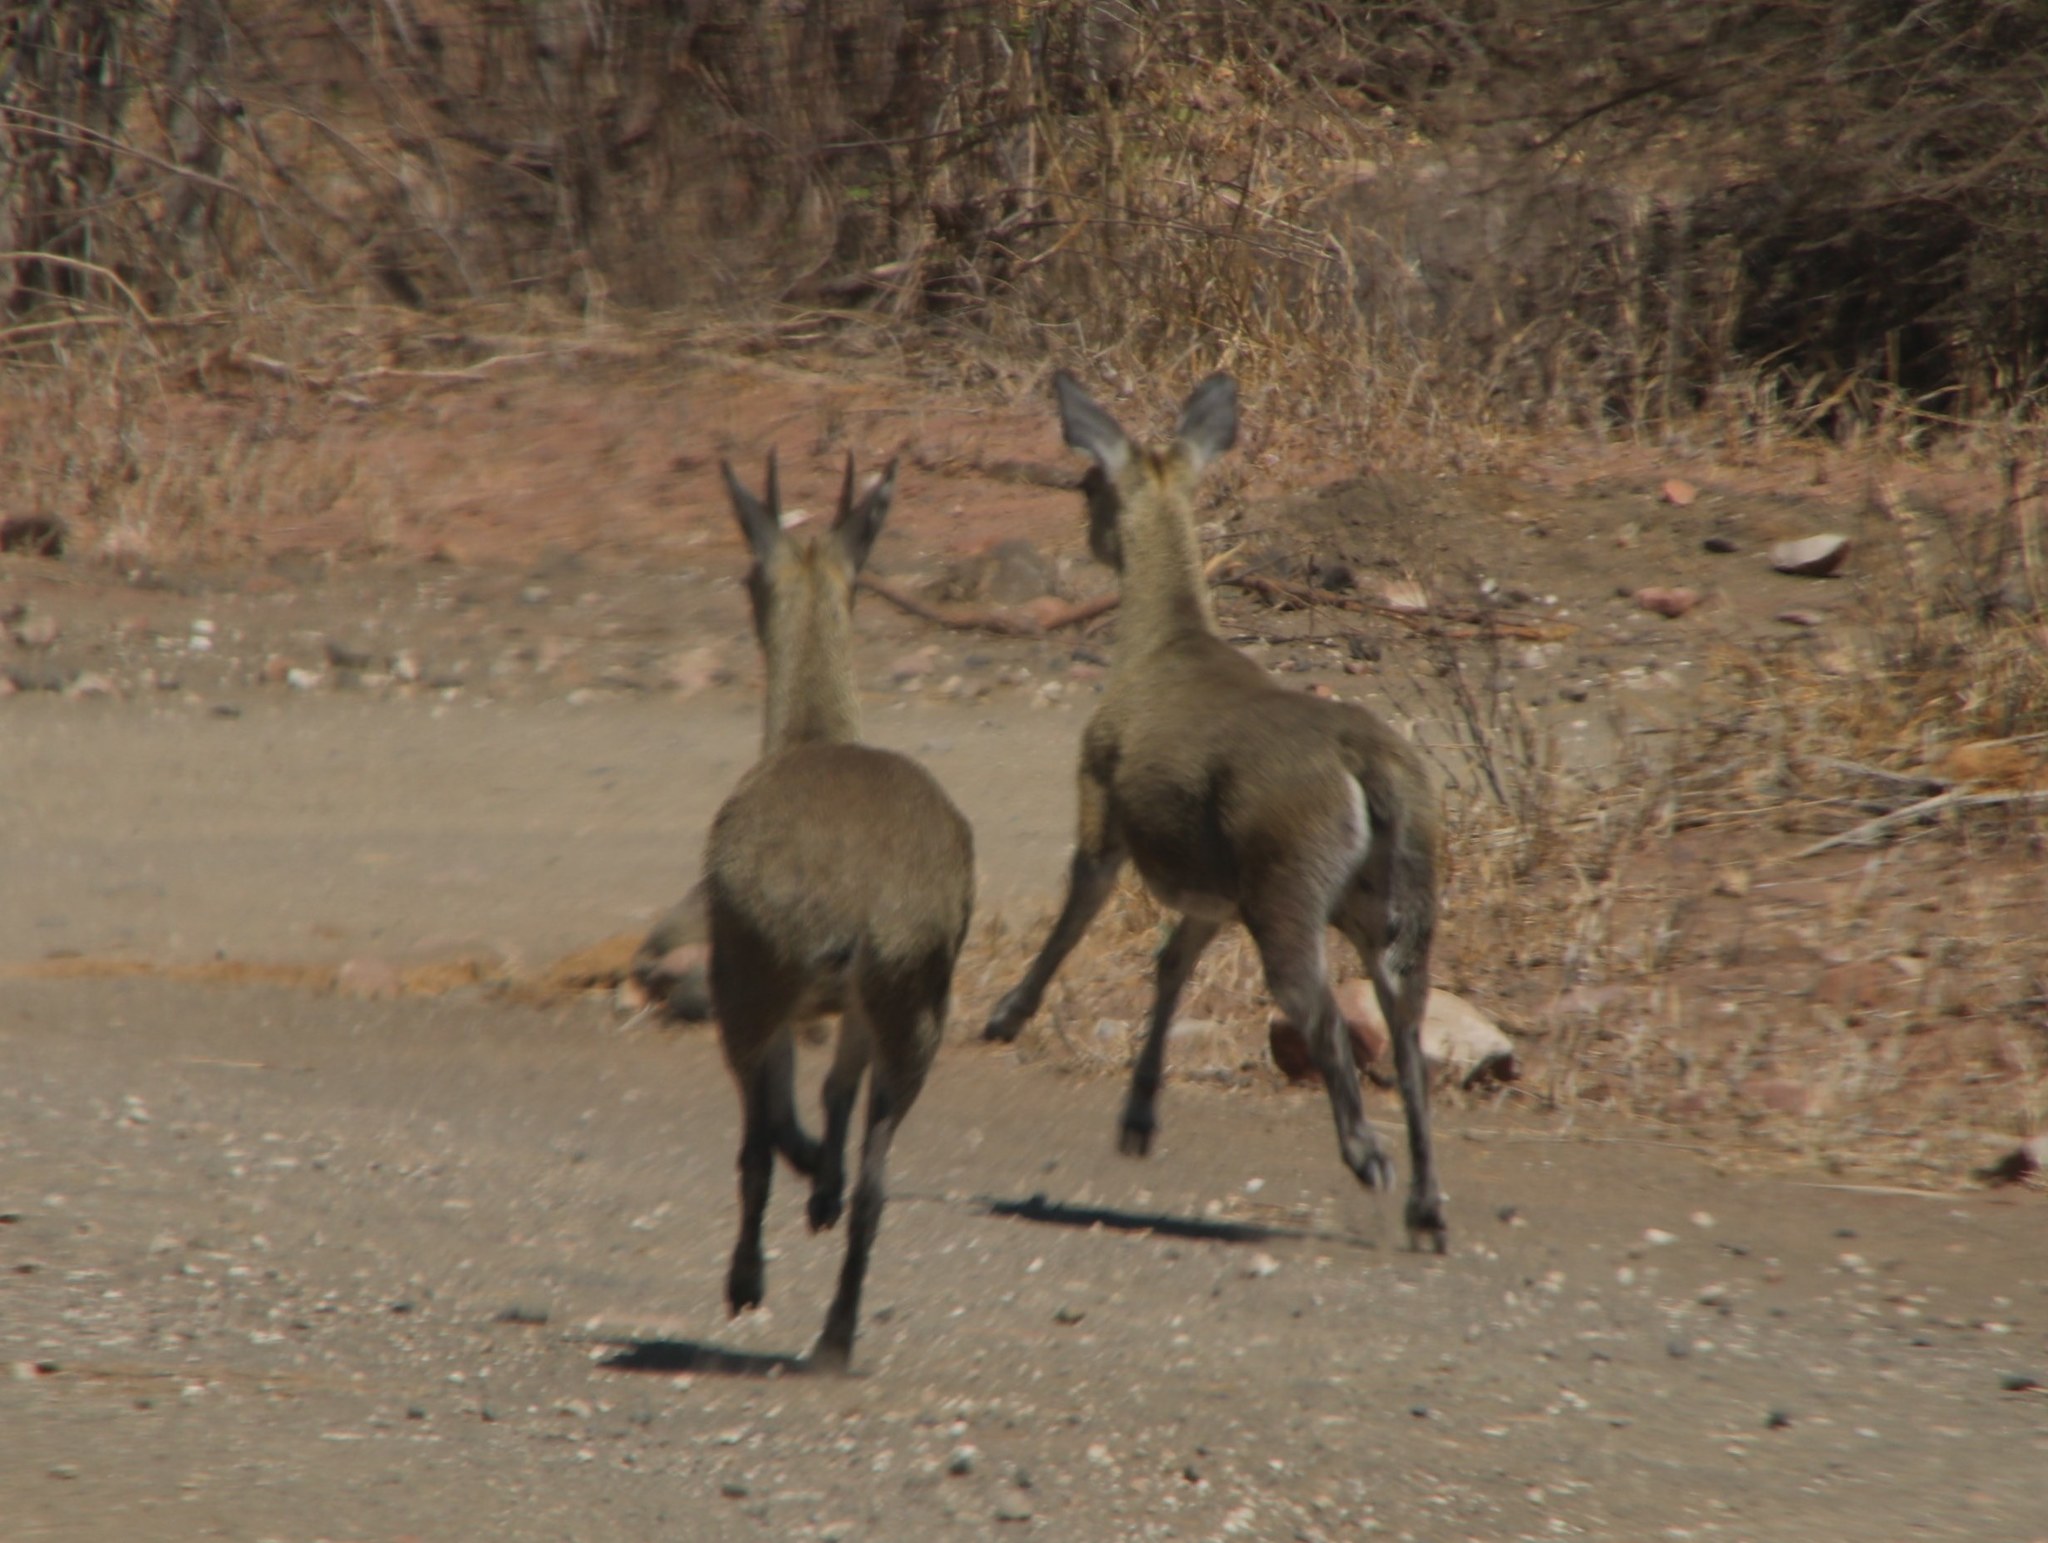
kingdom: Animalia
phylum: Chordata
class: Mammalia
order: Artiodactyla
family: Bovidae
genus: Oreotragus
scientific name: Oreotragus oreotragus
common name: Klipspringer
